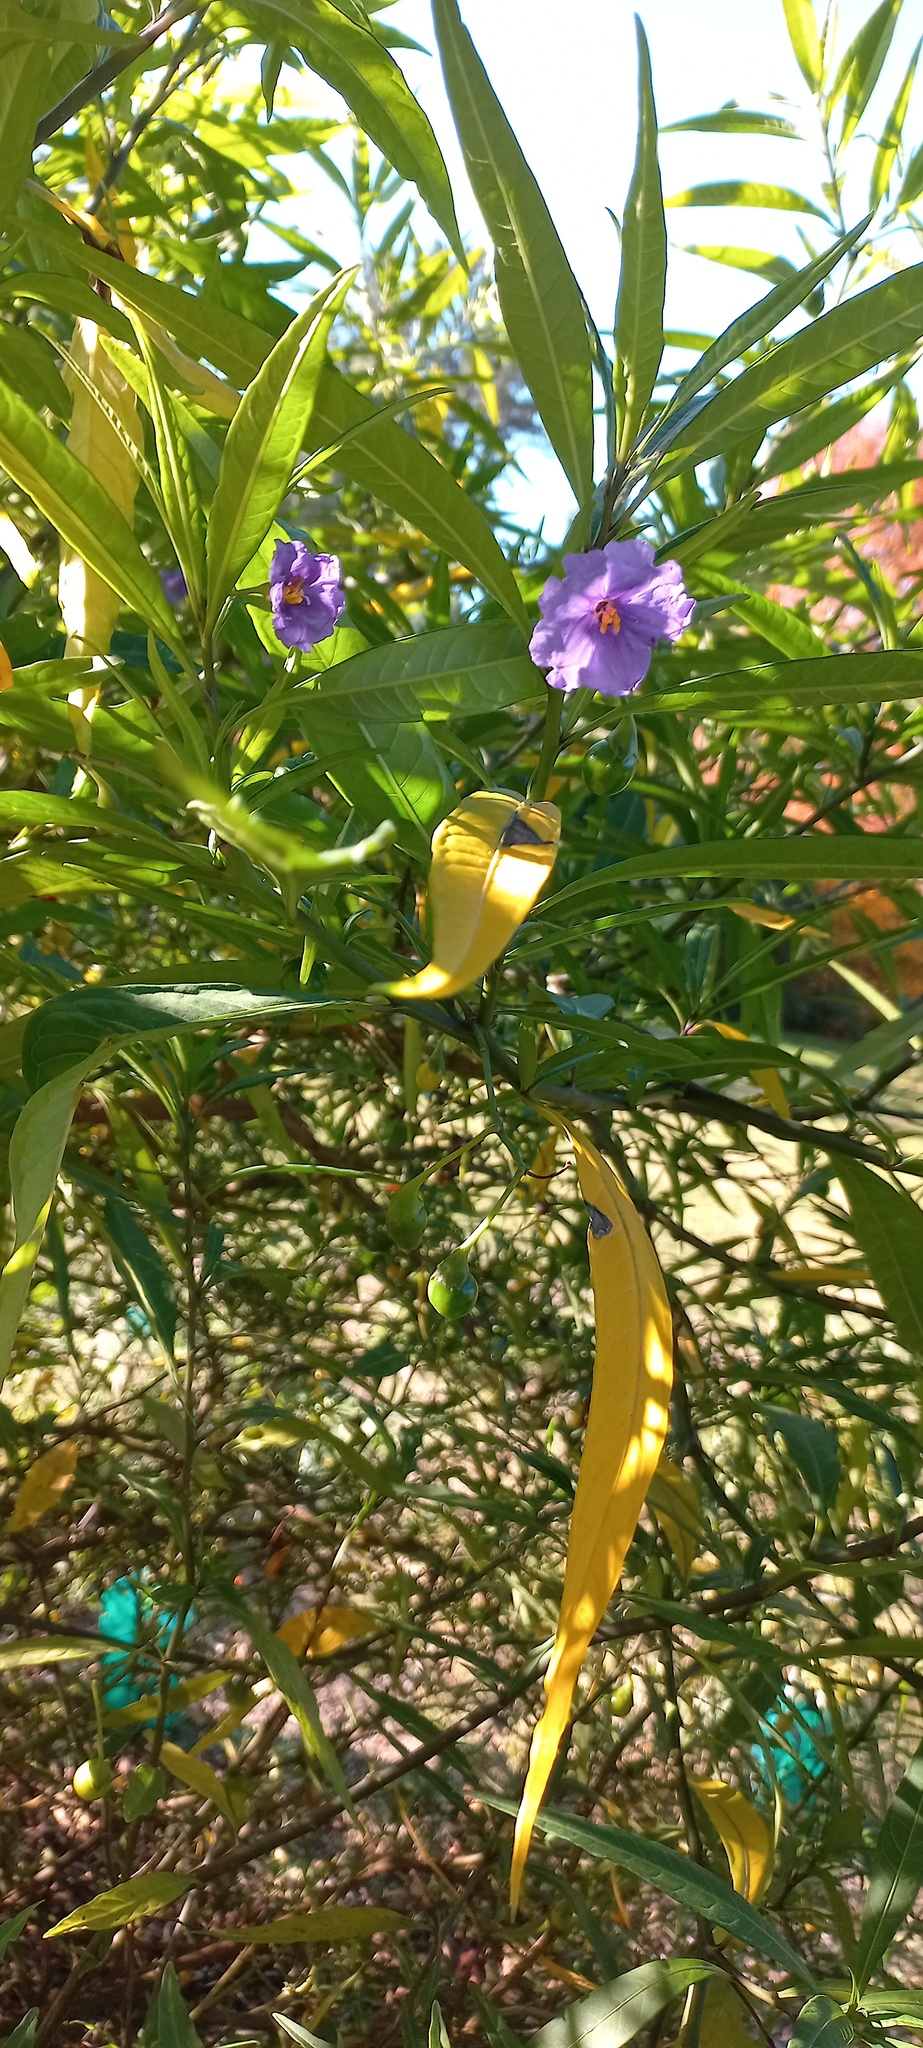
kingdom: Plantae
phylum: Tracheophyta
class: Magnoliopsida
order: Solanales
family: Solanaceae
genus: Solanum
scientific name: Solanum laciniatum
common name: Kangaroo-apple
